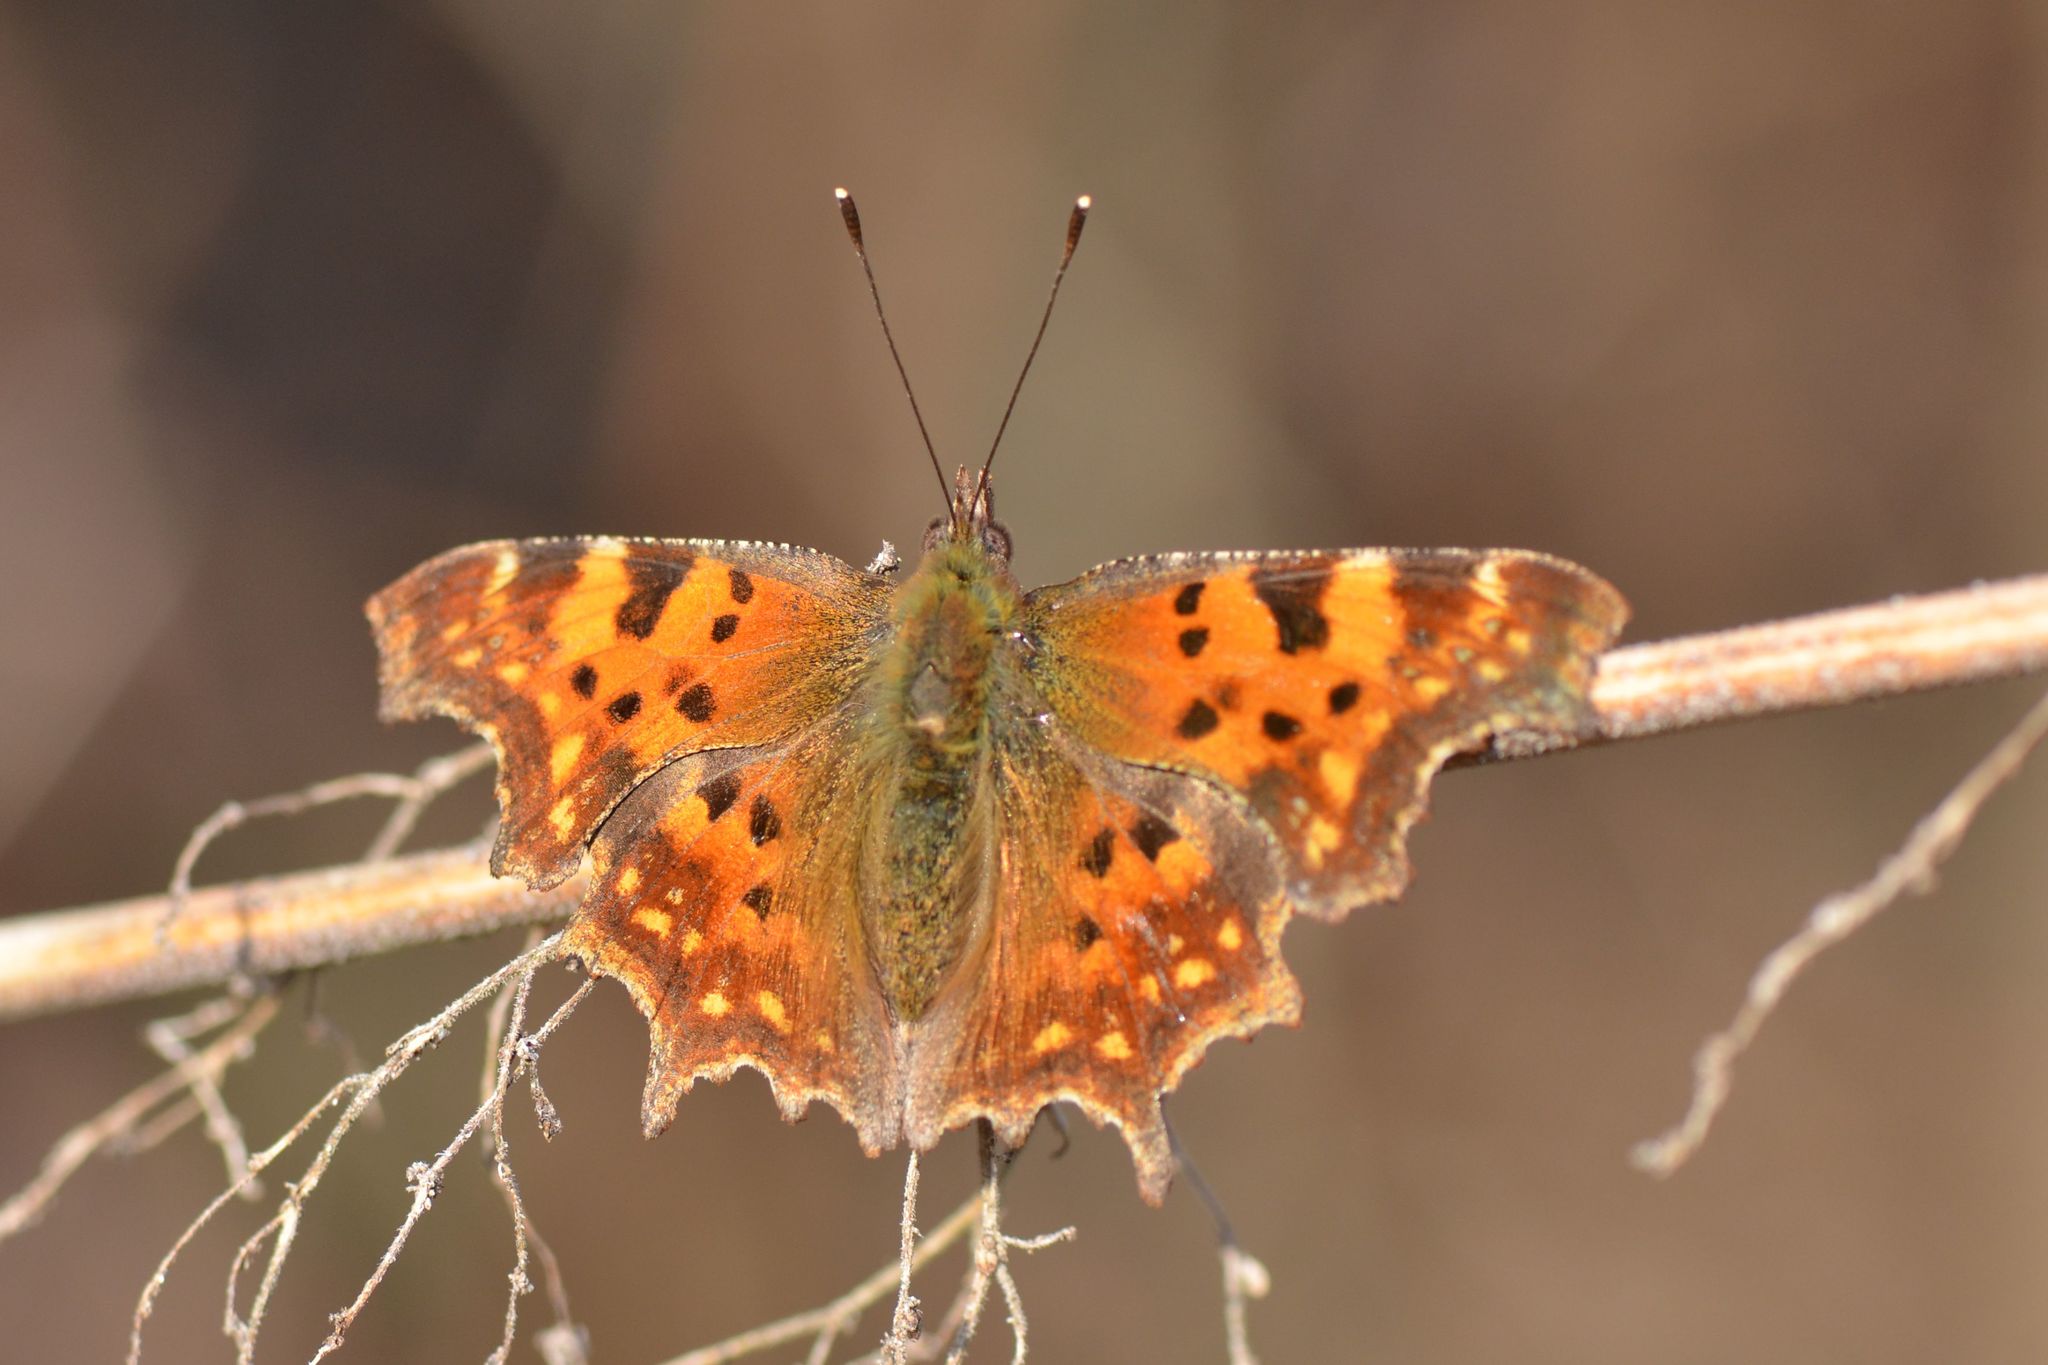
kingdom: Animalia
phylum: Arthropoda
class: Insecta
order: Lepidoptera
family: Nymphalidae
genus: Polygonia
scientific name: Polygonia c-album
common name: Comma
